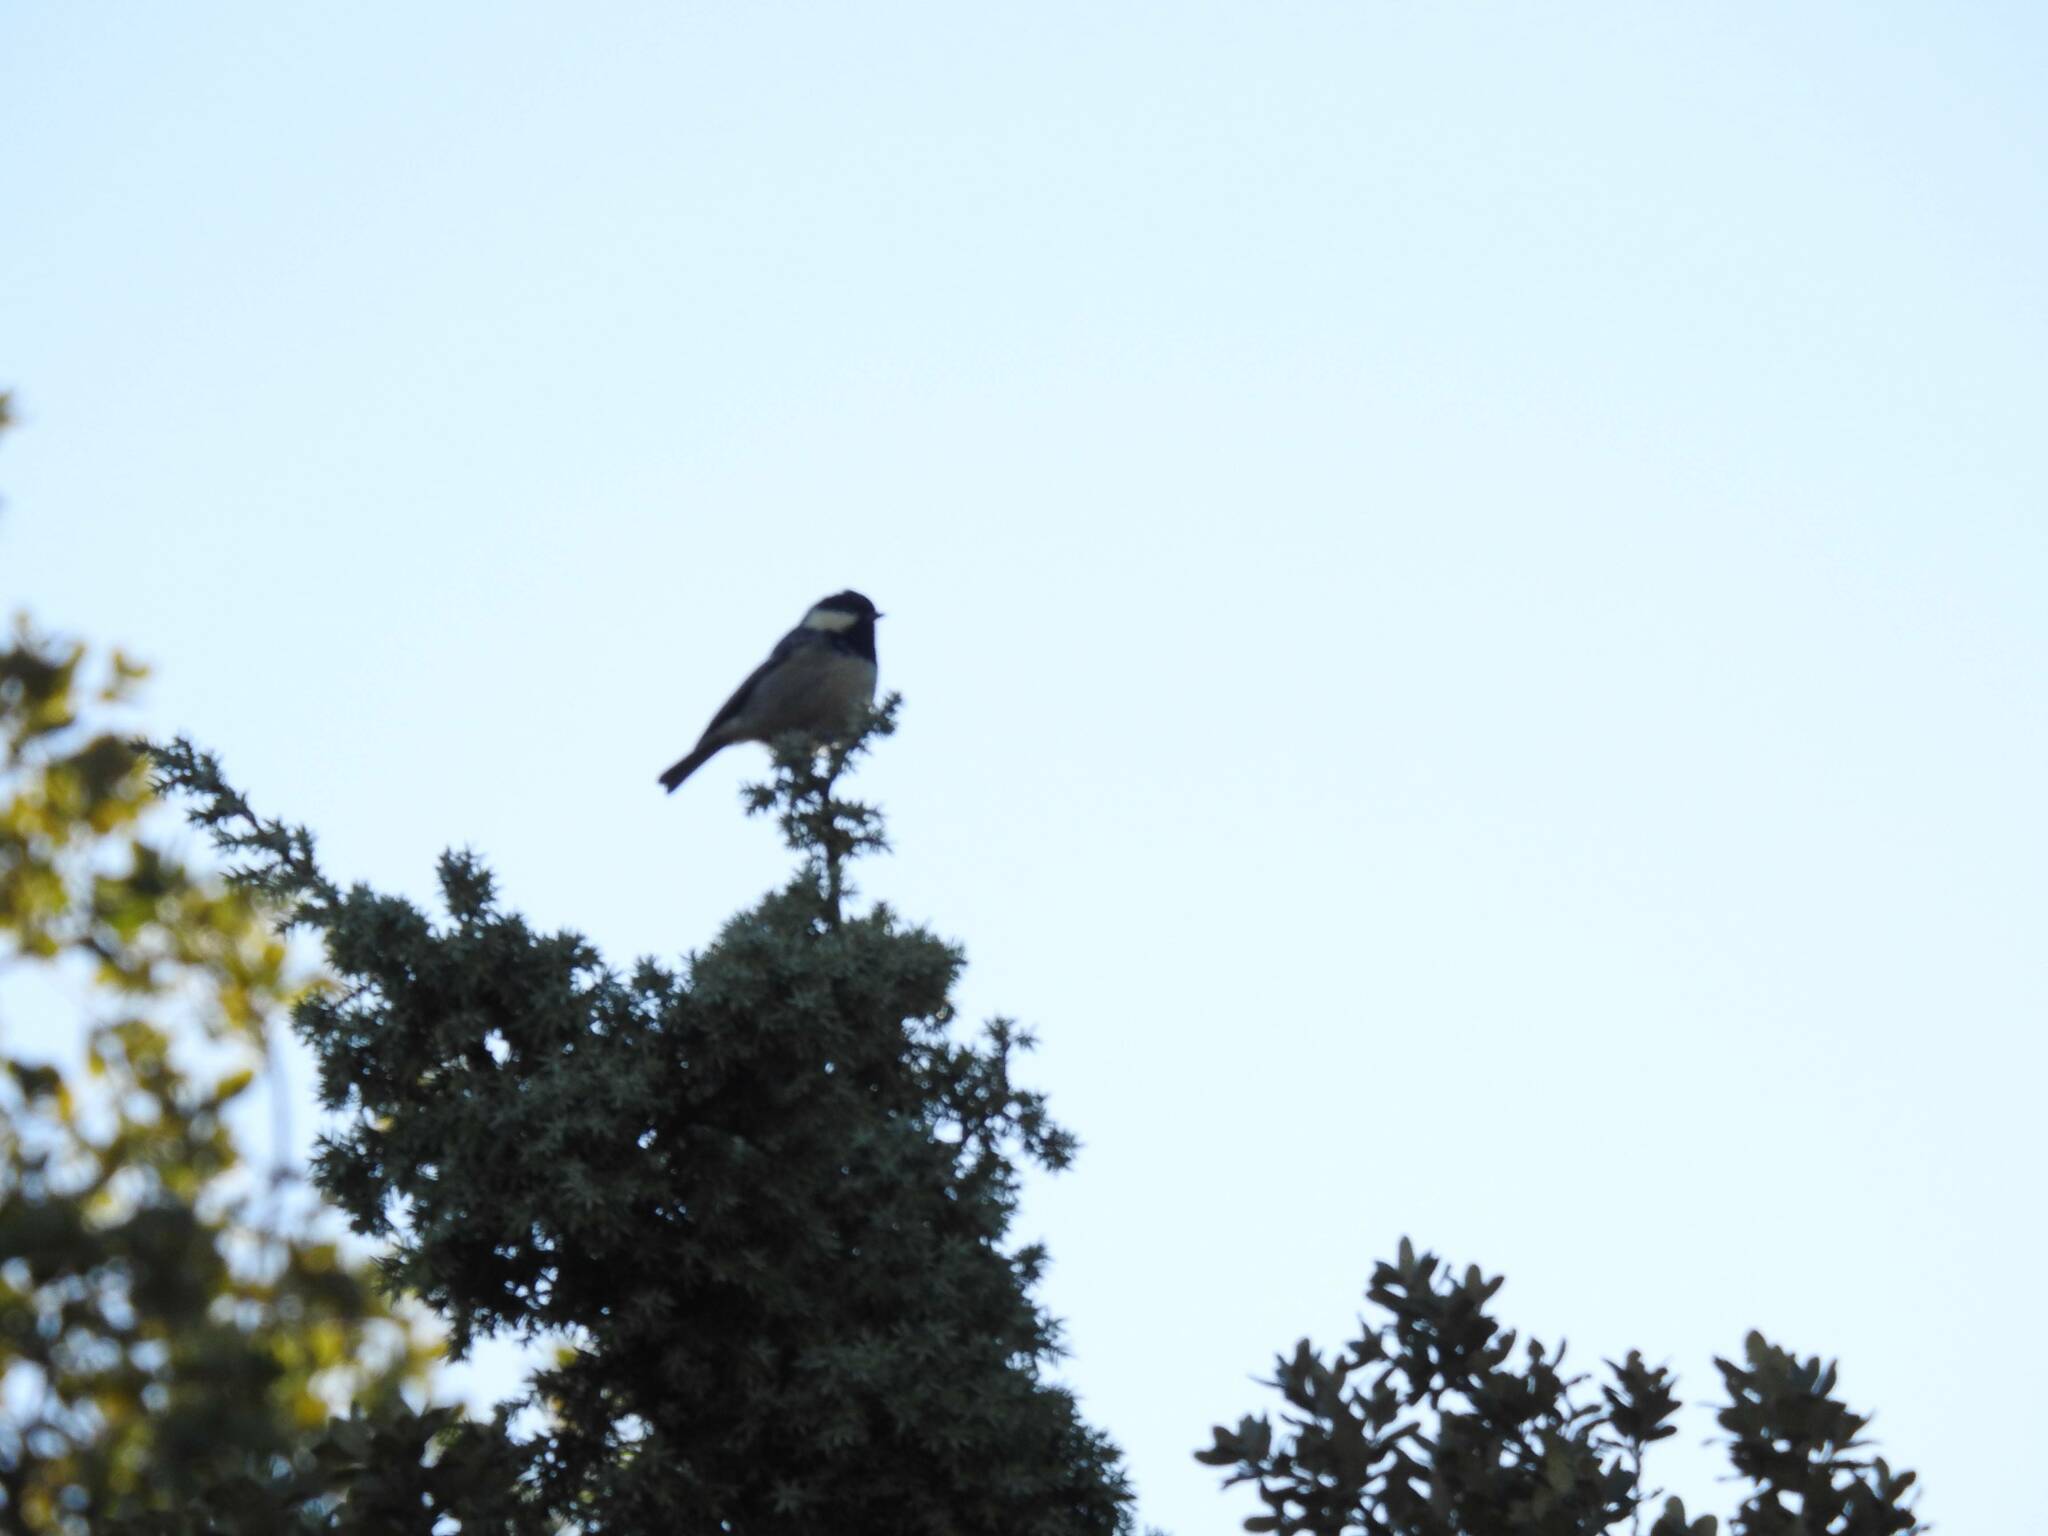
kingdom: Animalia
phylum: Chordata
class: Aves
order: Passeriformes
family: Paridae
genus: Periparus
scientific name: Periparus ater
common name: Coal tit
